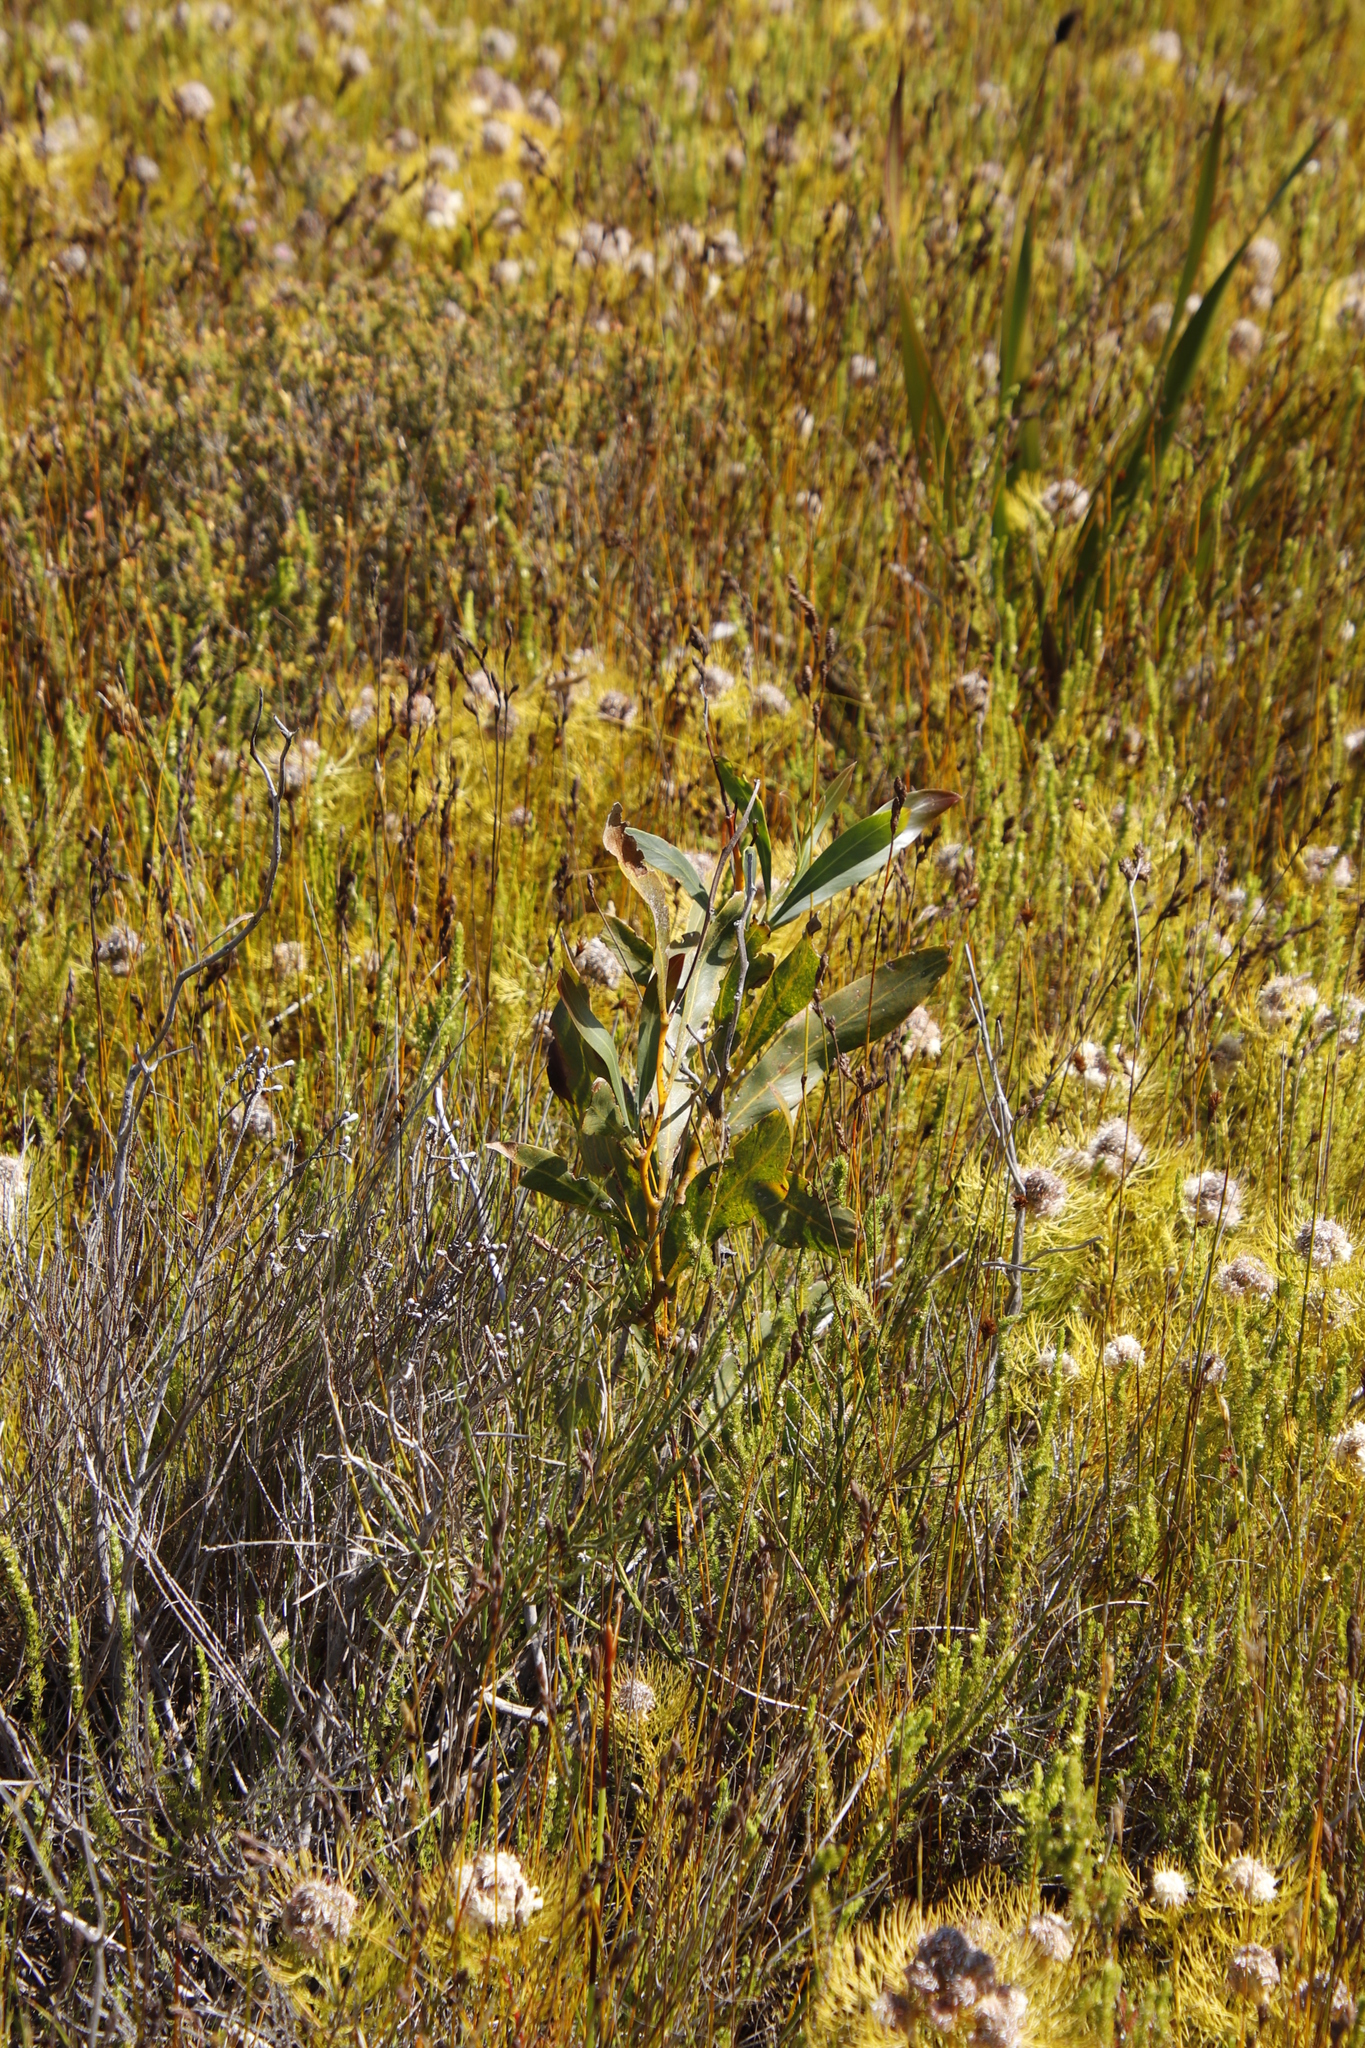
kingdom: Plantae
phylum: Tracheophyta
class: Magnoliopsida
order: Fabales
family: Fabaceae
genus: Acacia
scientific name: Acacia saligna
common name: Orange wattle
